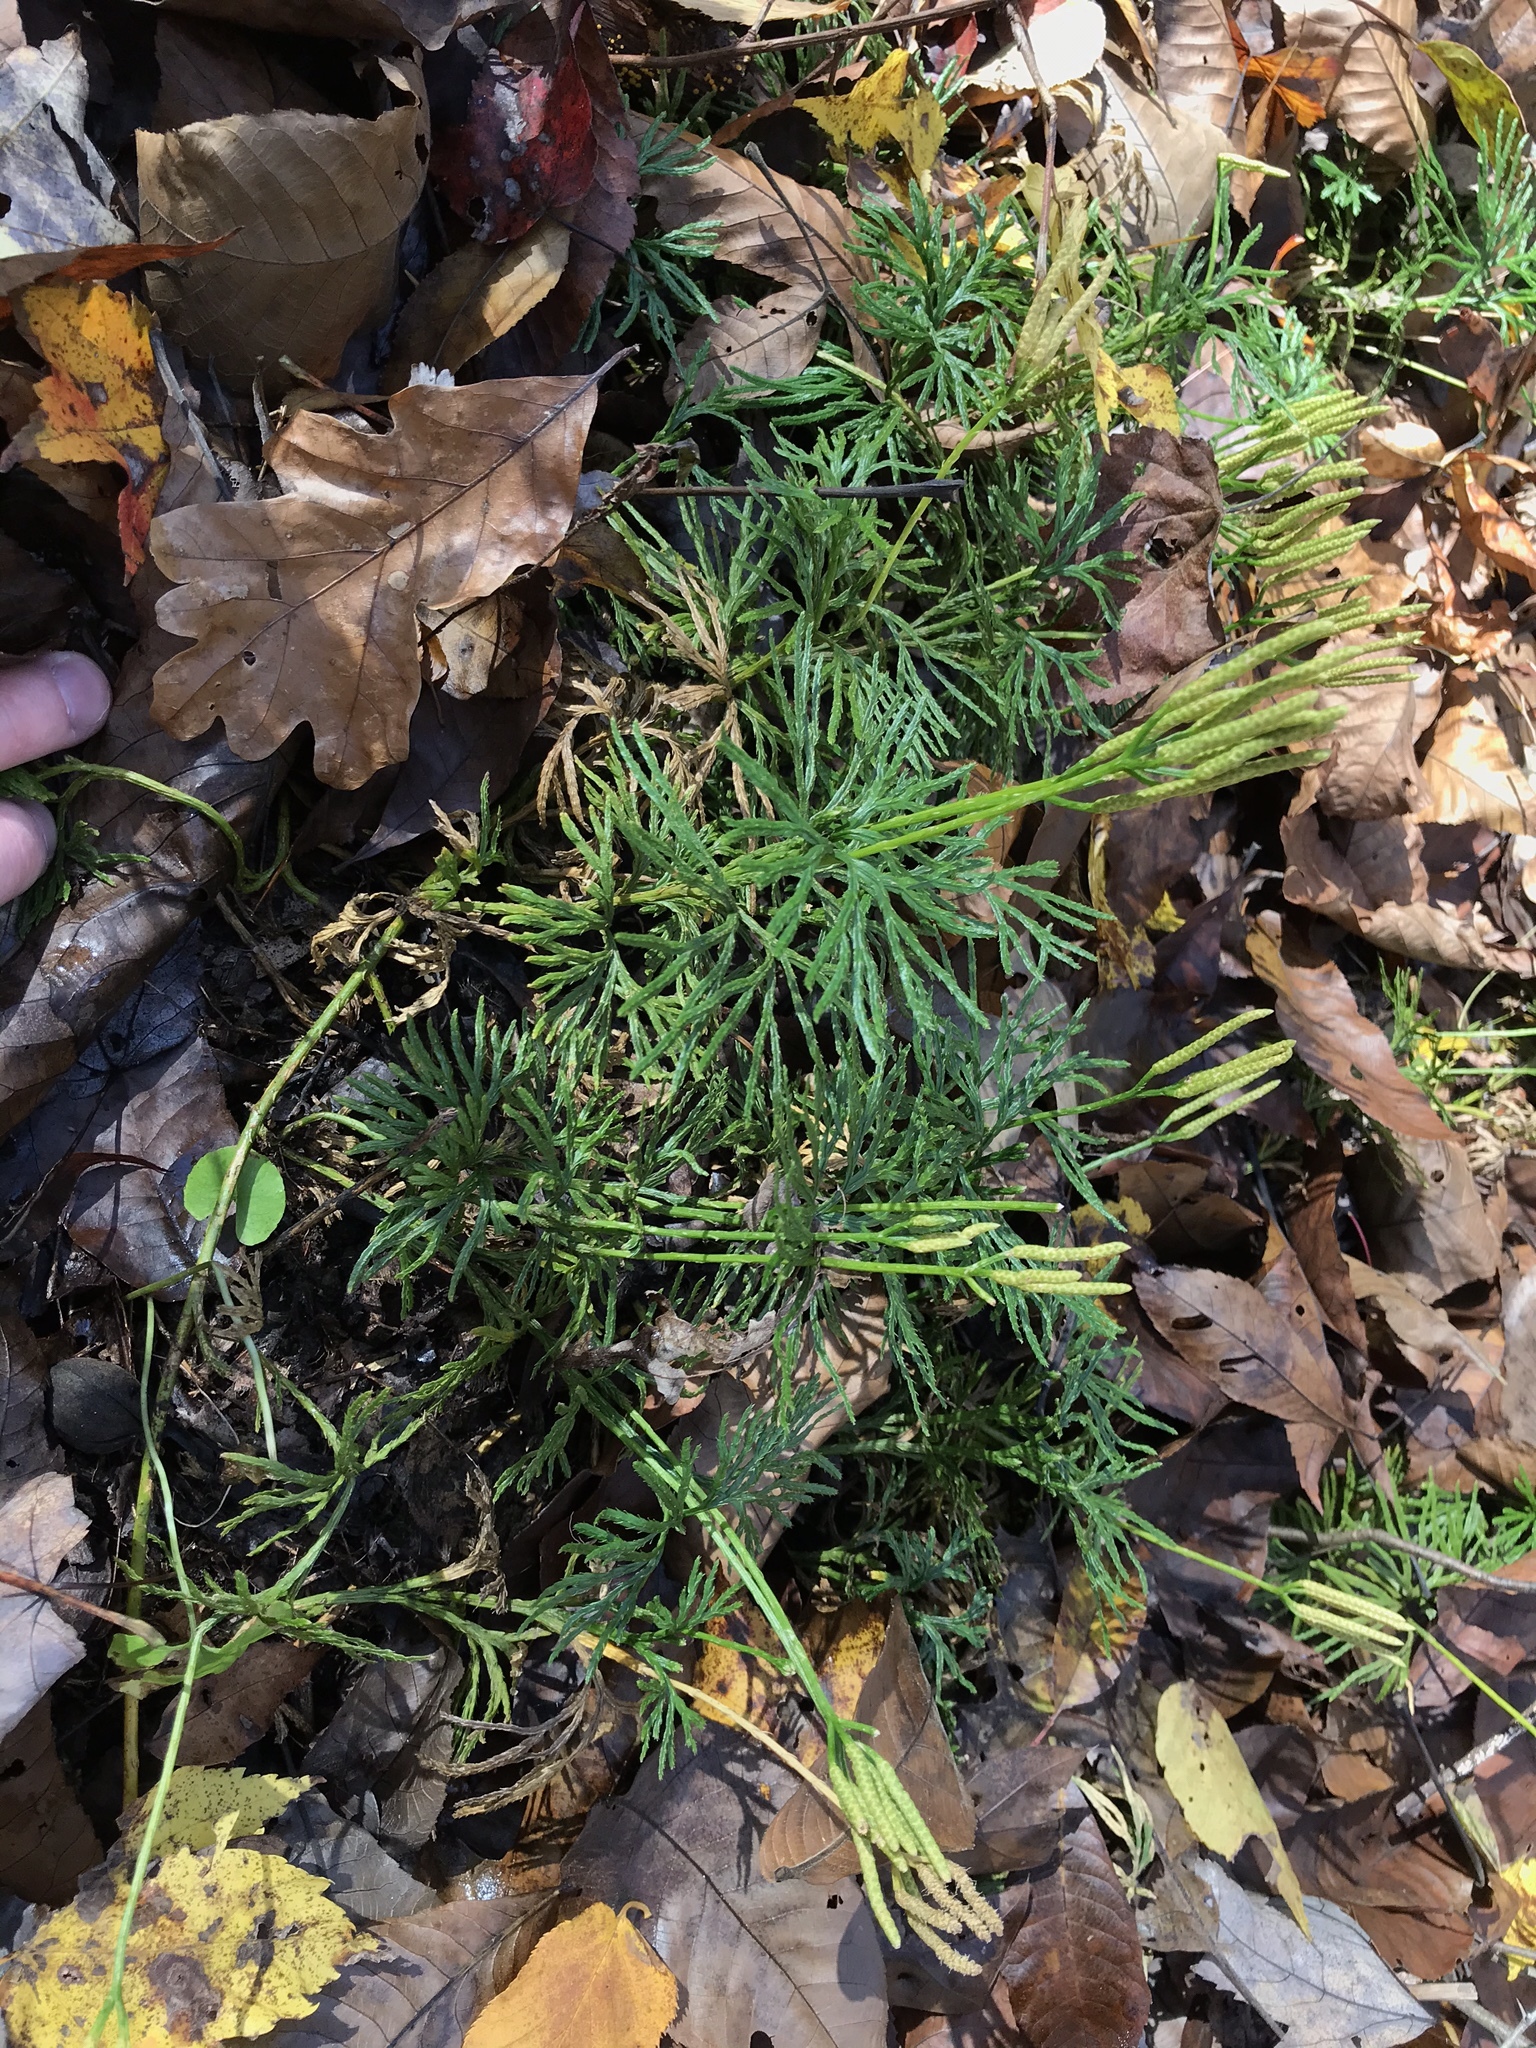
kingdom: Plantae
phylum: Tracheophyta
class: Lycopodiopsida
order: Lycopodiales
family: Lycopodiaceae
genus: Diphasiastrum
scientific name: Diphasiastrum digitatum
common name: Southern running-pine
